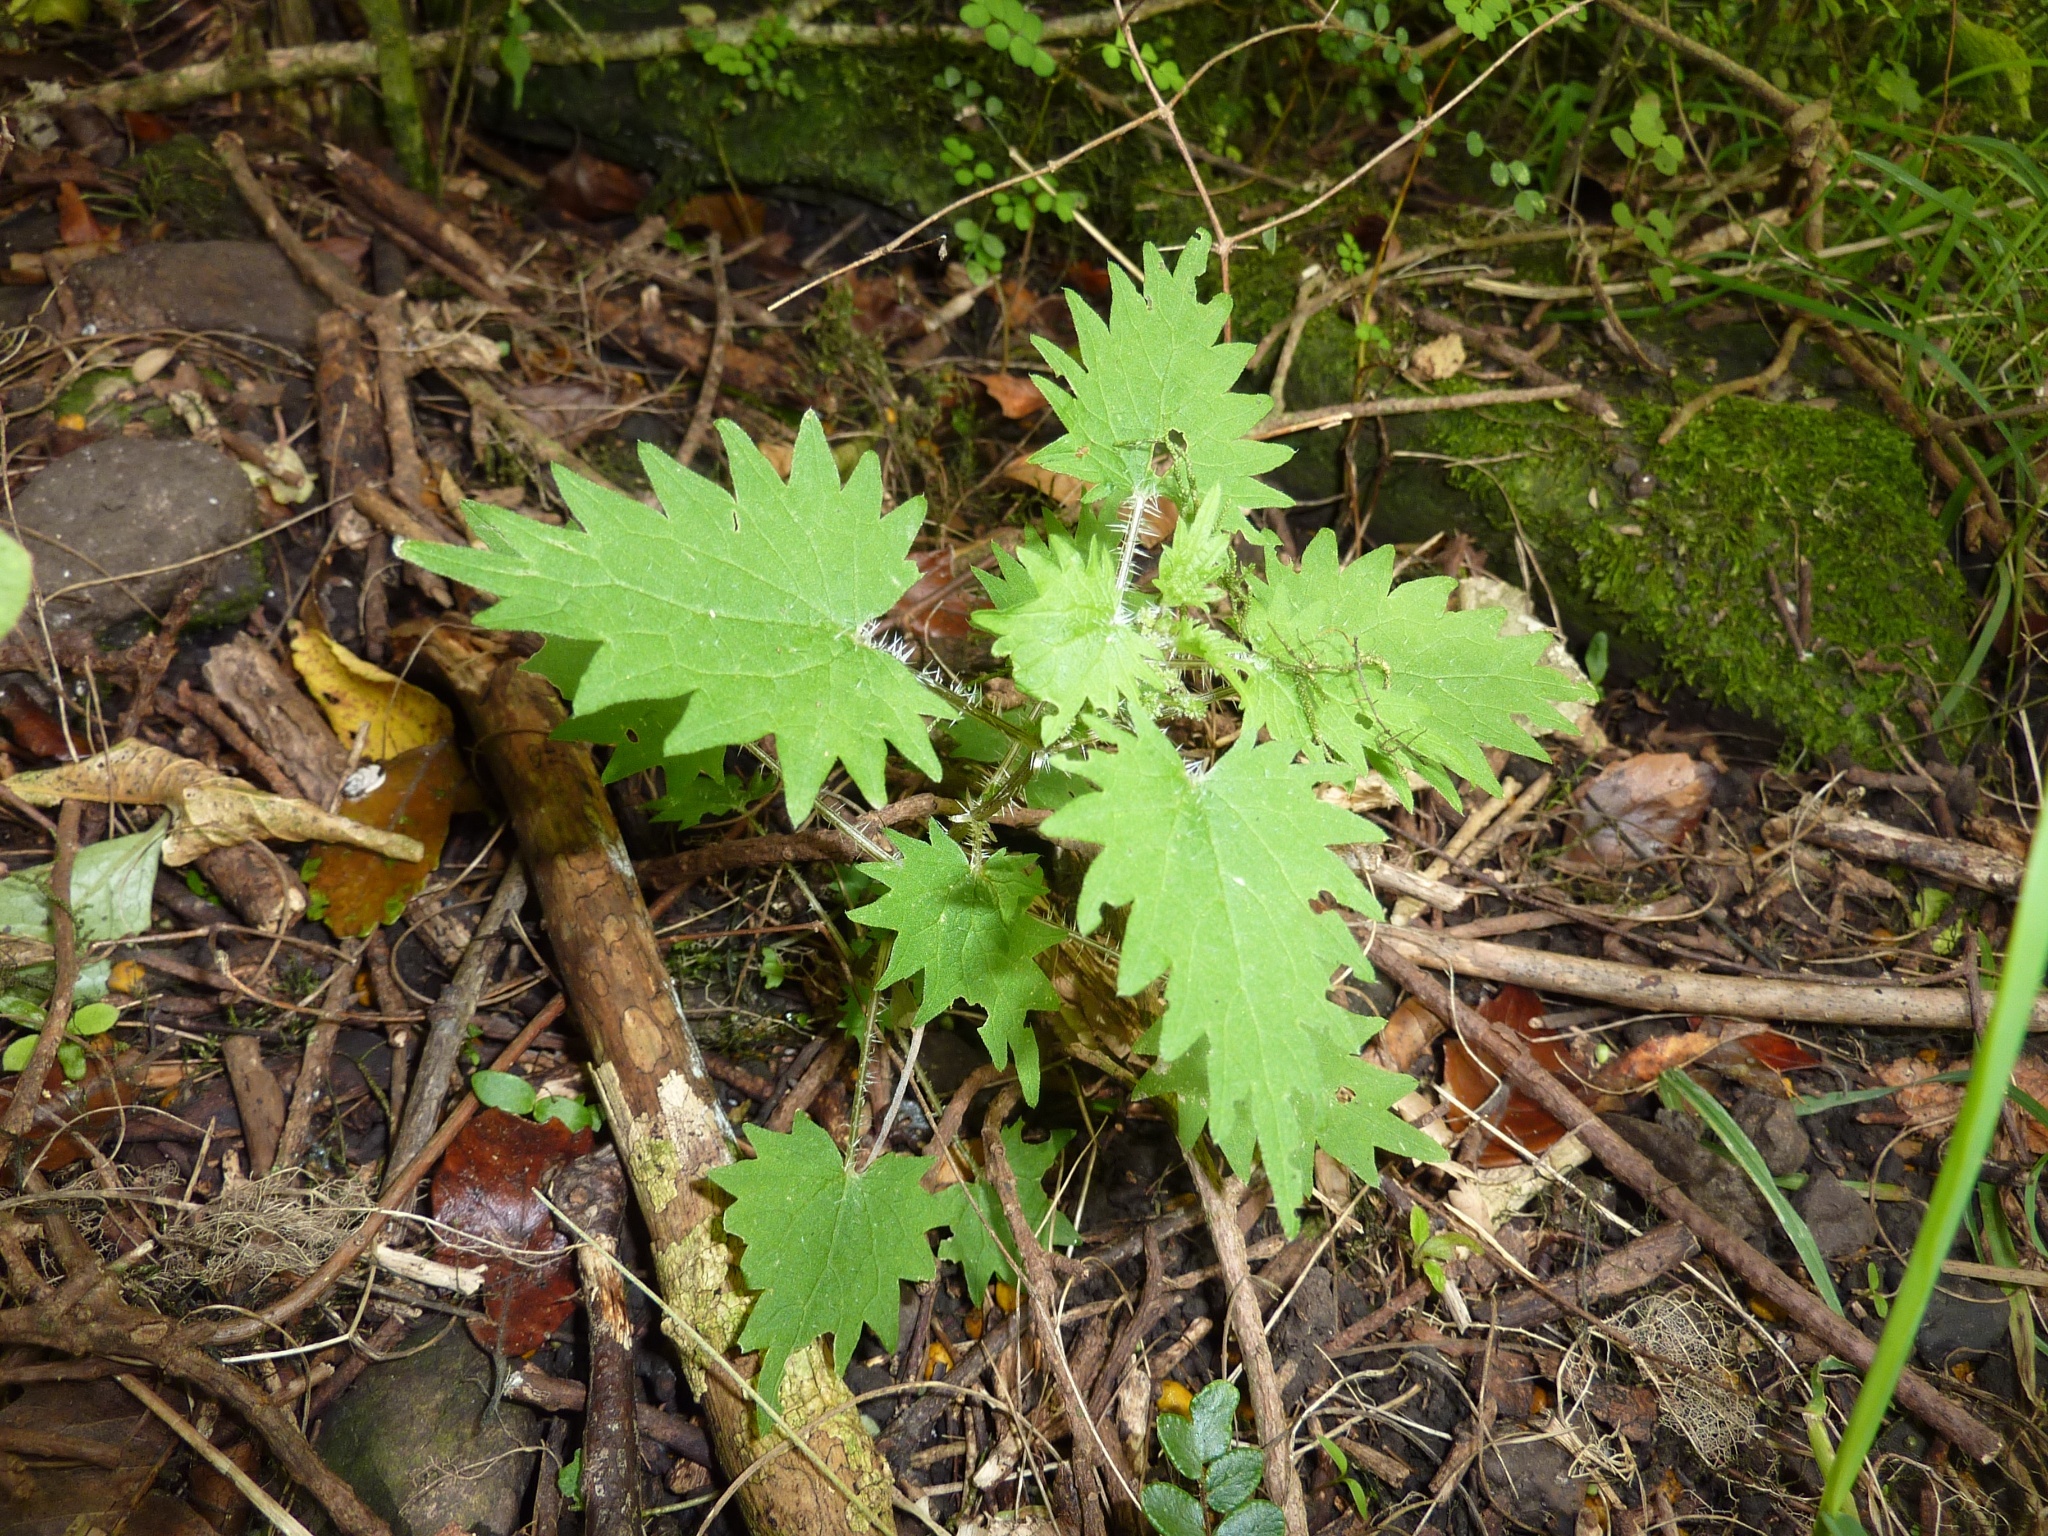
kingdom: Plantae
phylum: Tracheophyta
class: Magnoliopsida
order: Rosales
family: Urticaceae
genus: Urtica
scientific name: Urtica ferox
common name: Tree nettle
